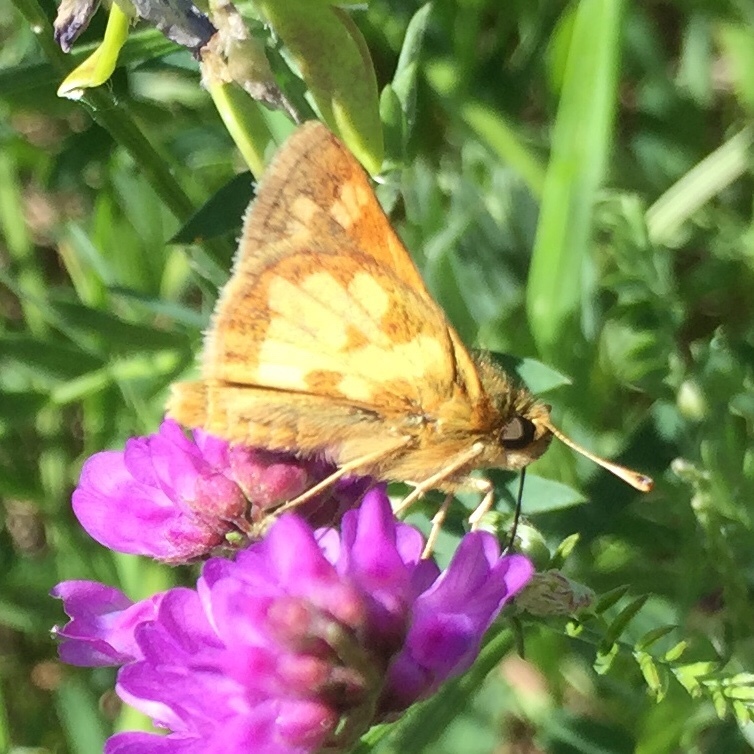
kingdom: Animalia
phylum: Arthropoda
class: Insecta
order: Lepidoptera
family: Hesperiidae
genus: Polites
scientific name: Polites coras
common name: Peck's skipper
